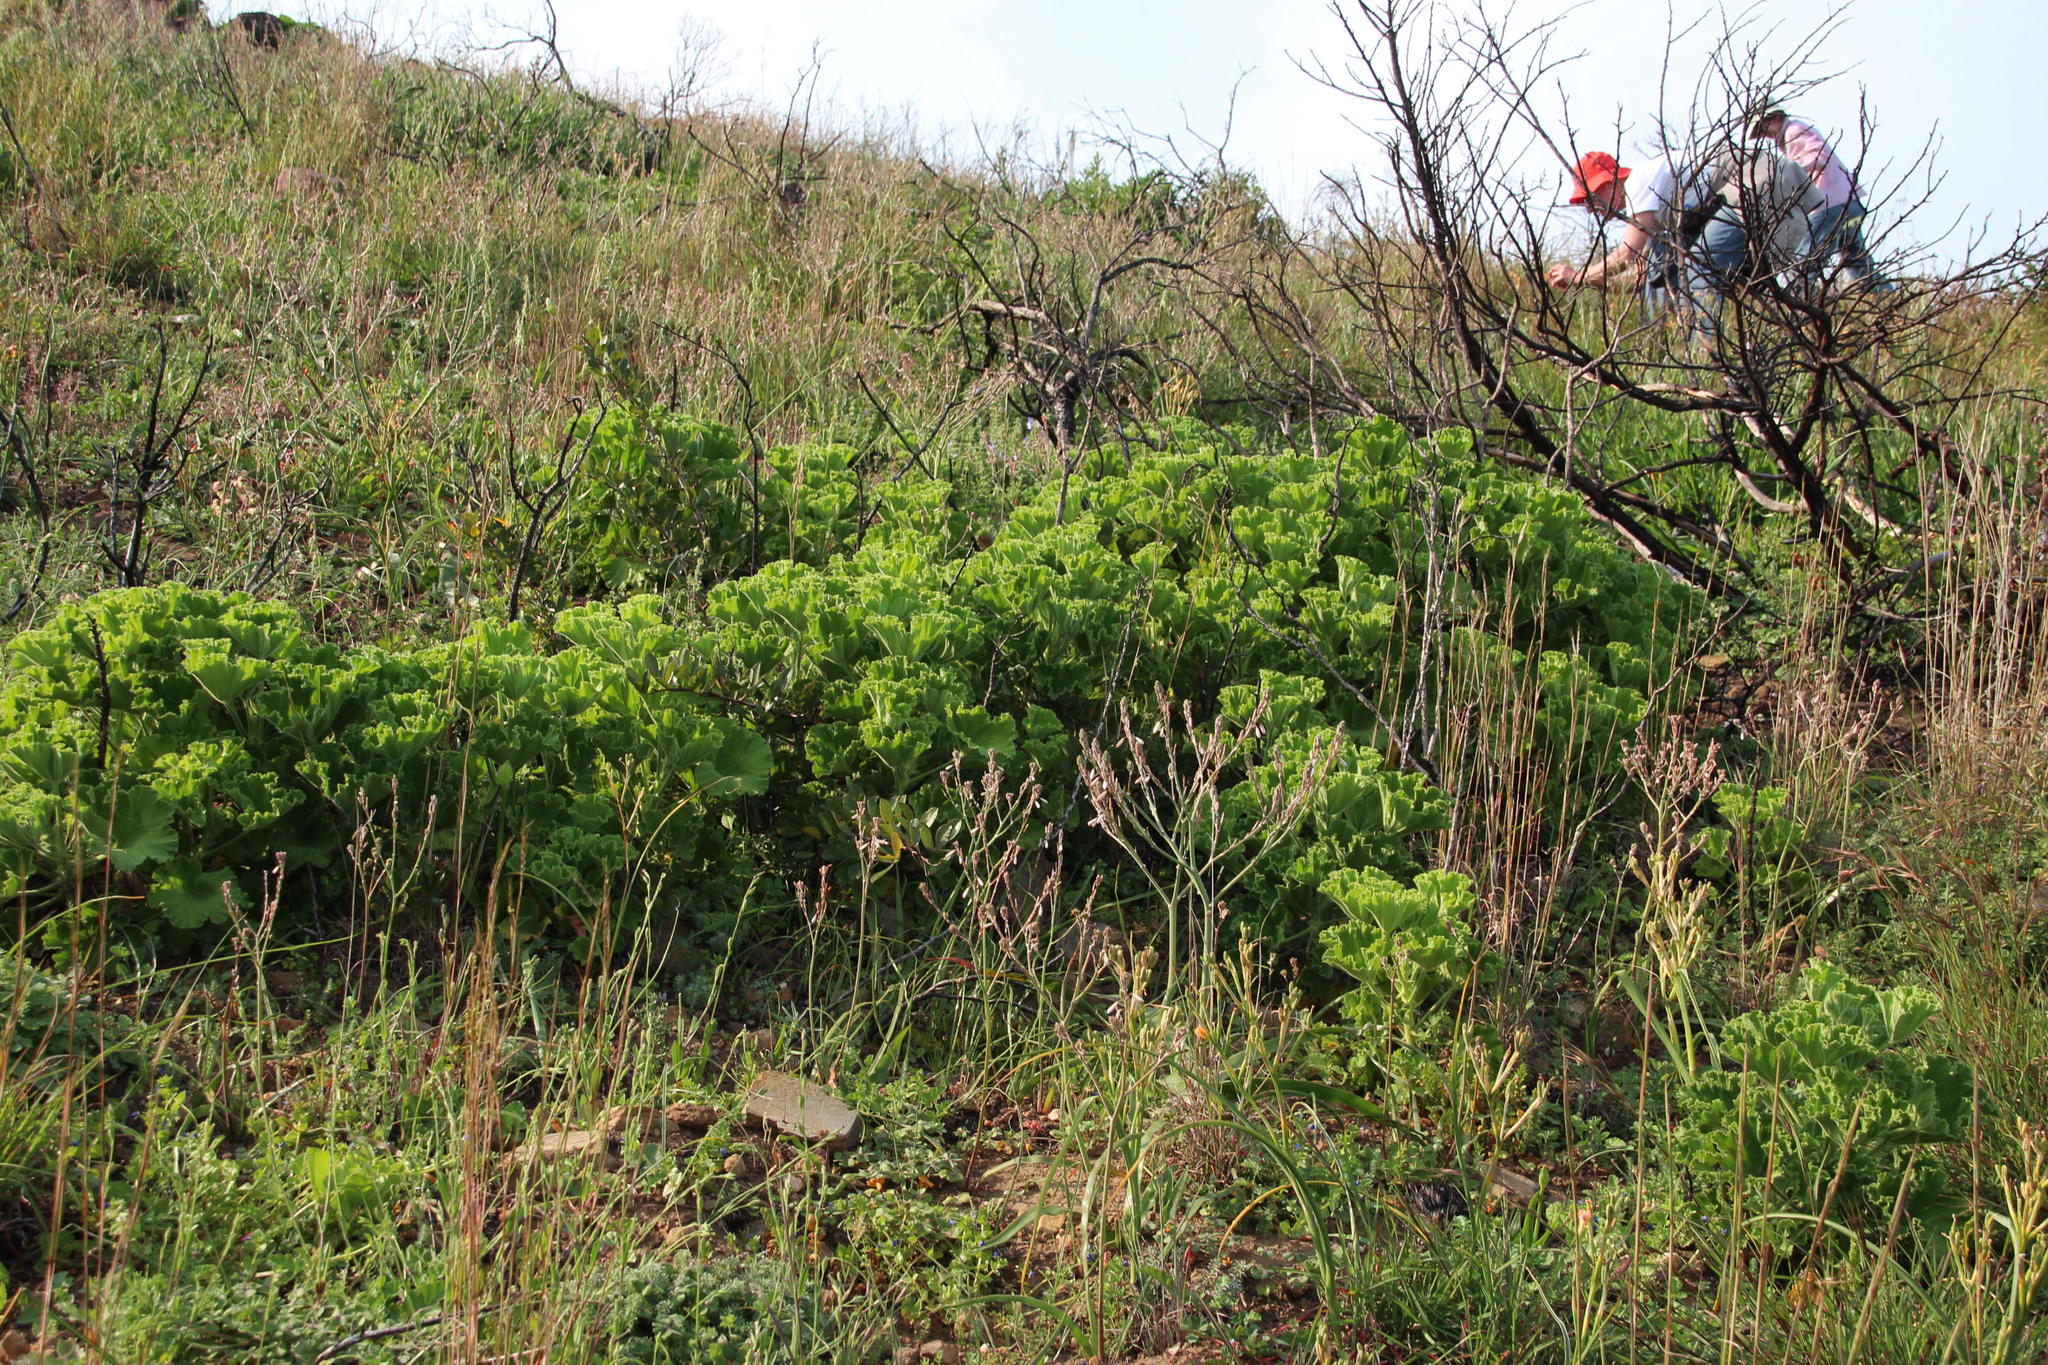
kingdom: Plantae
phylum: Tracheophyta
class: Magnoliopsida
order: Geraniales
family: Geraniaceae
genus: Pelargonium
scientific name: Pelargonium cucullatum
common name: Tree pelargonium
